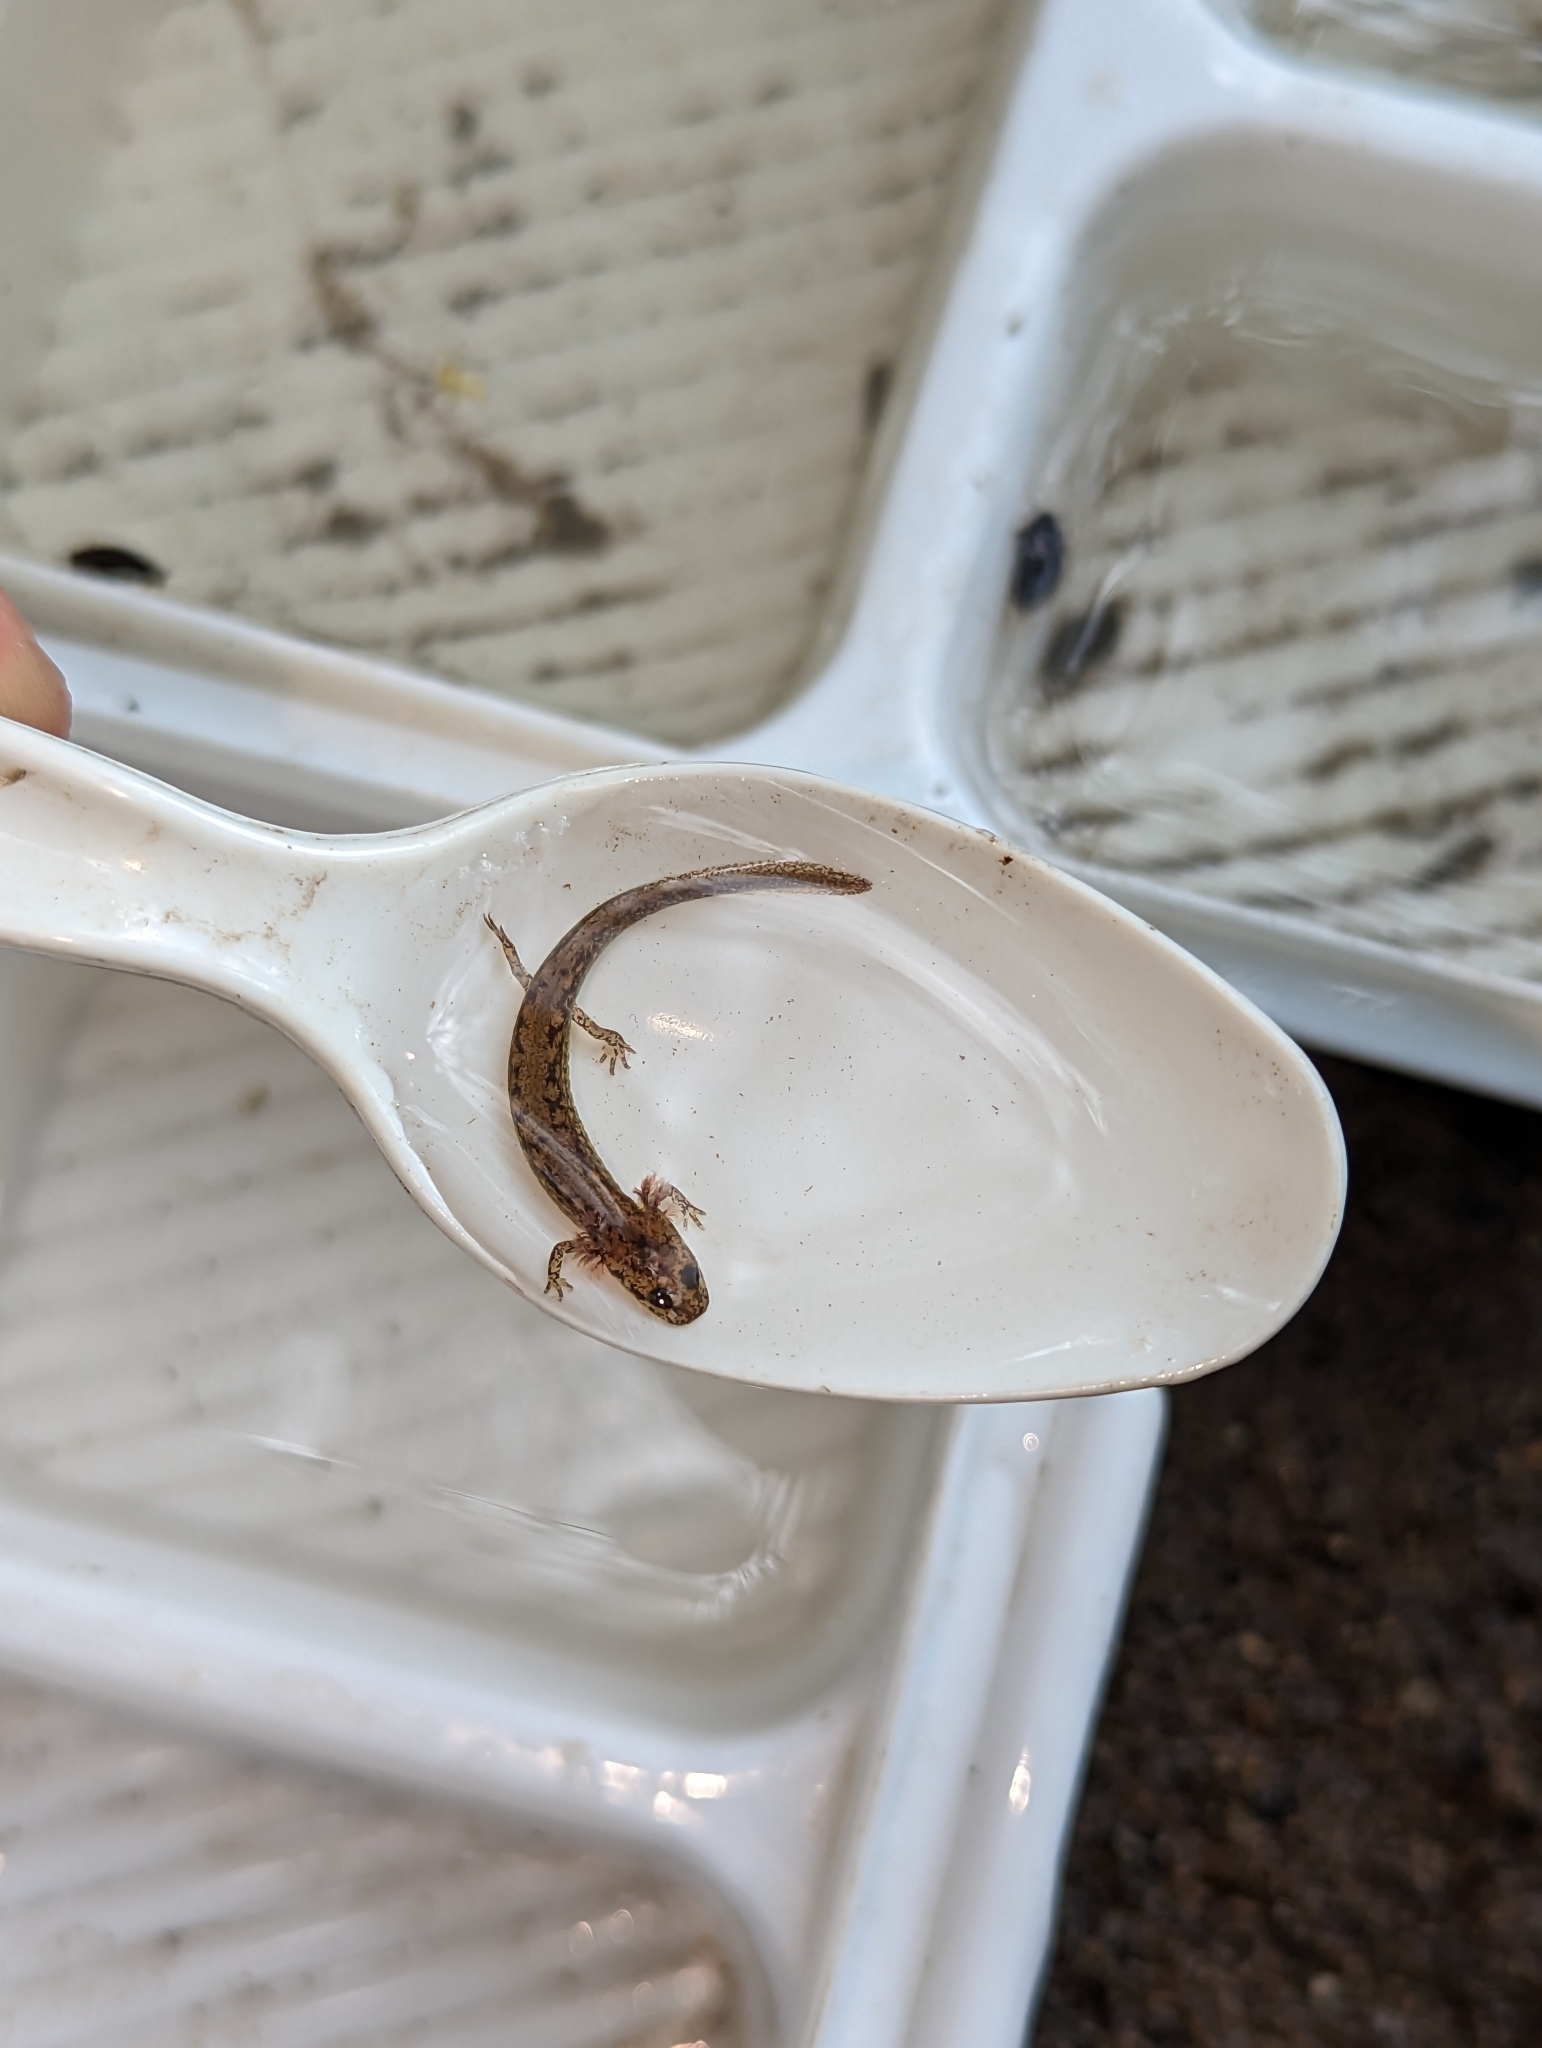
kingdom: Animalia
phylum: Chordata
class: Amphibia
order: Caudata
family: Plethodontidae
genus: Eurycea
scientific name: Eurycea bislineata
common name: Northern two-lined salamander
